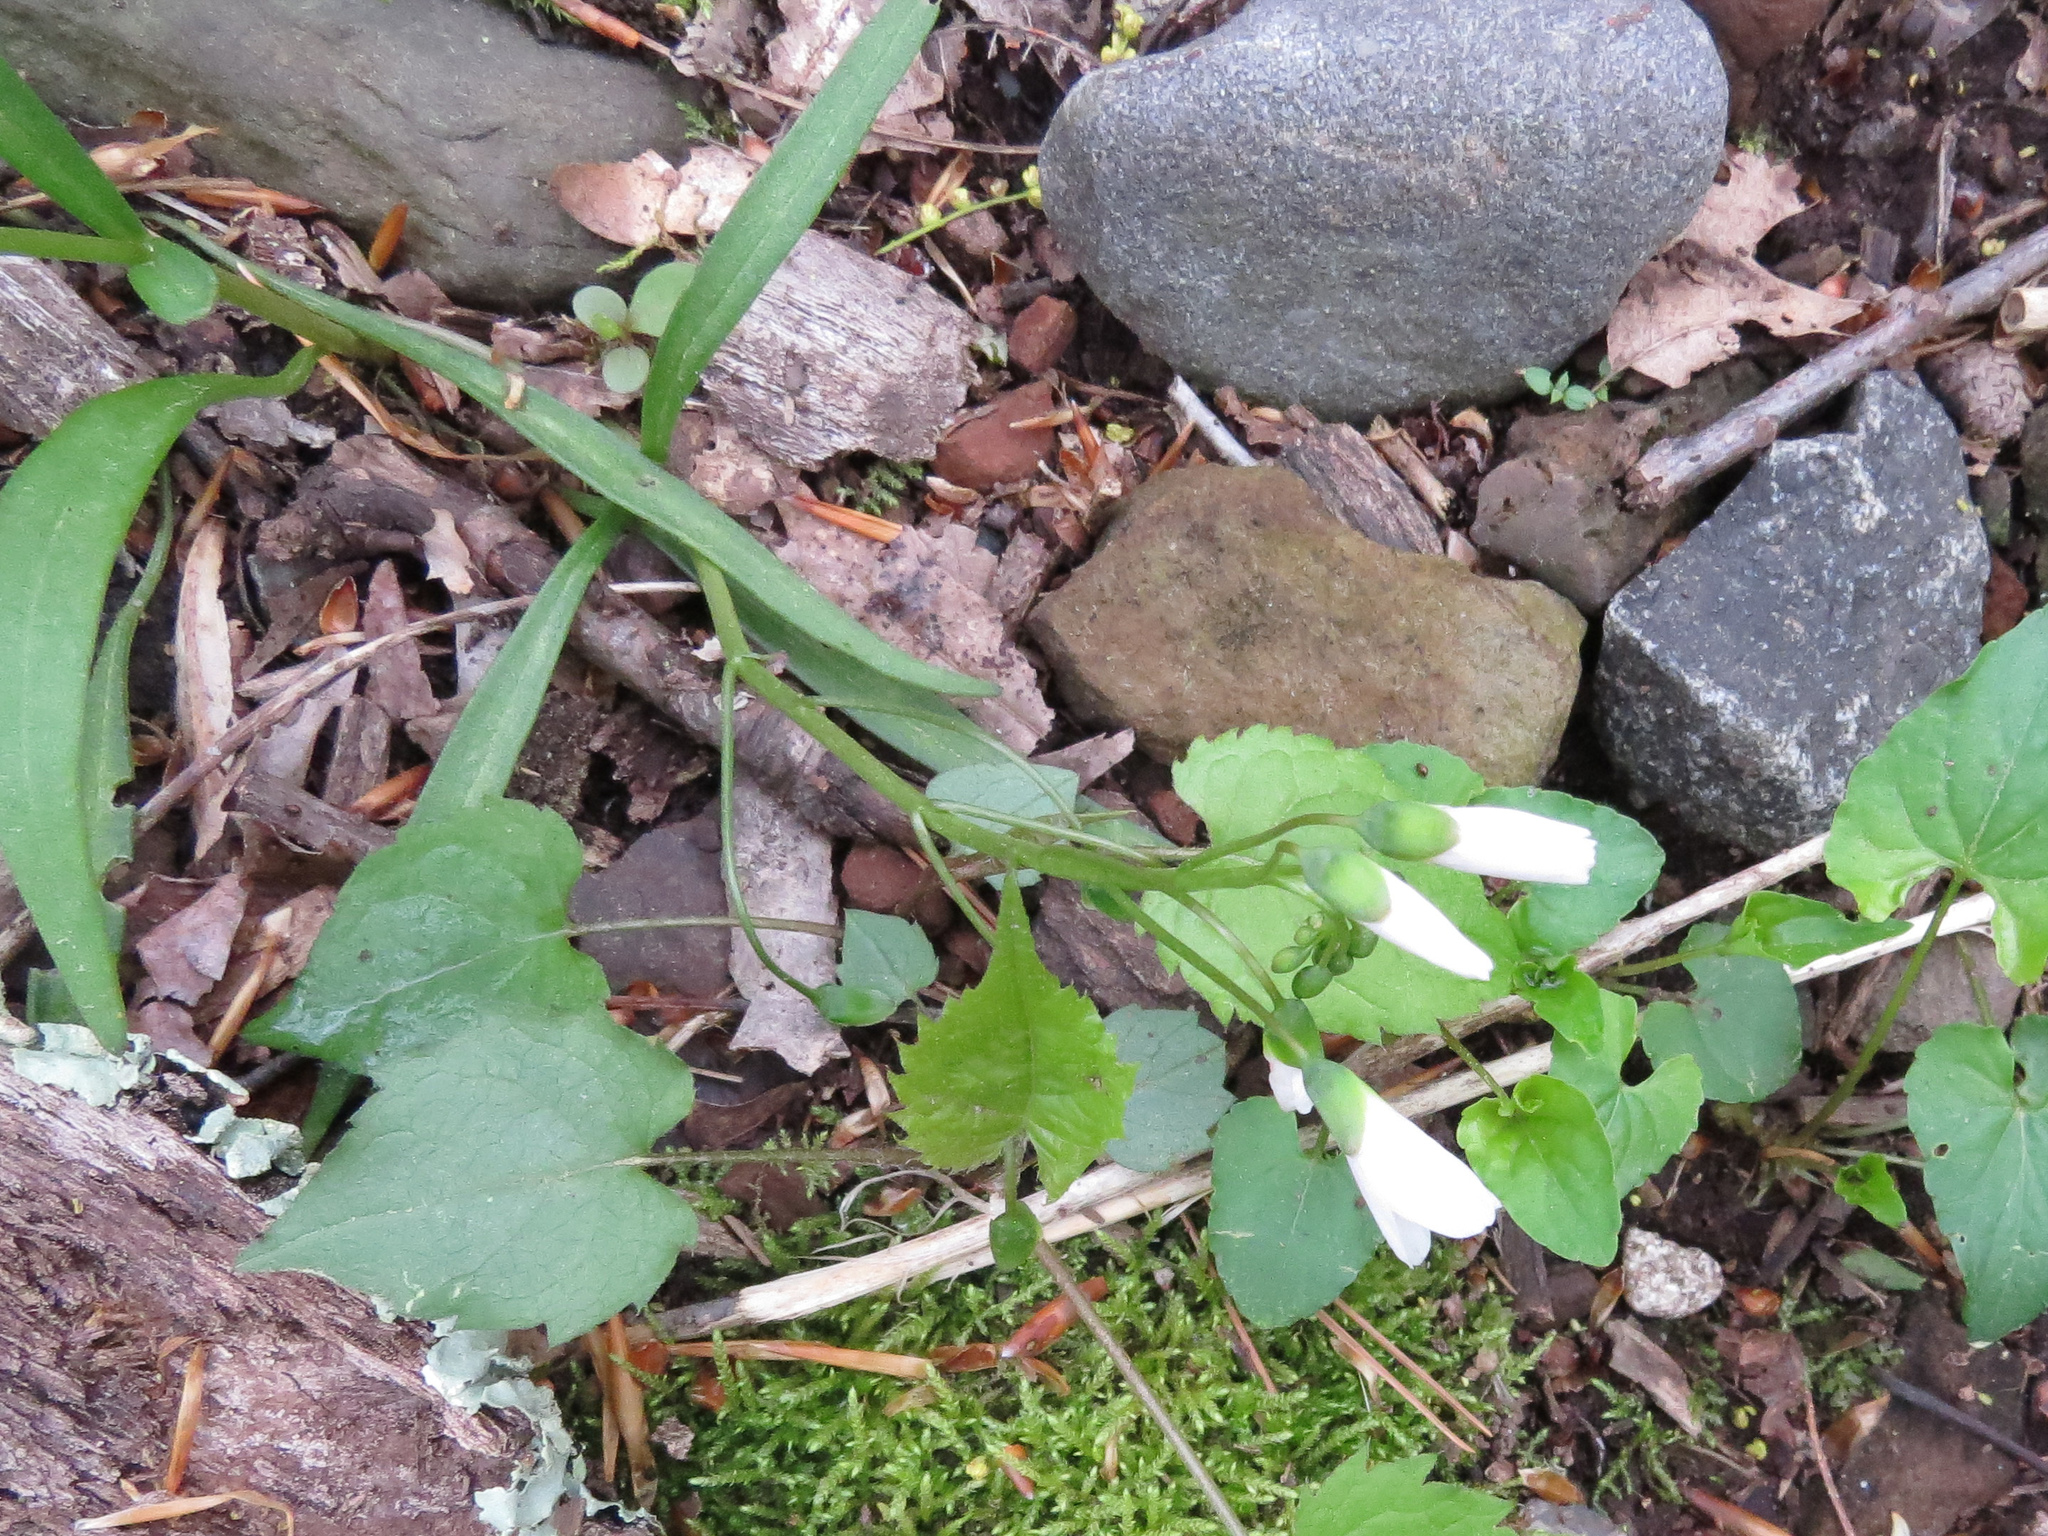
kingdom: Plantae
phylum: Tracheophyta
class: Magnoliopsida
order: Caryophyllales
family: Montiaceae
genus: Claytonia
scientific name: Claytonia virginica
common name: Virginia springbeauty
